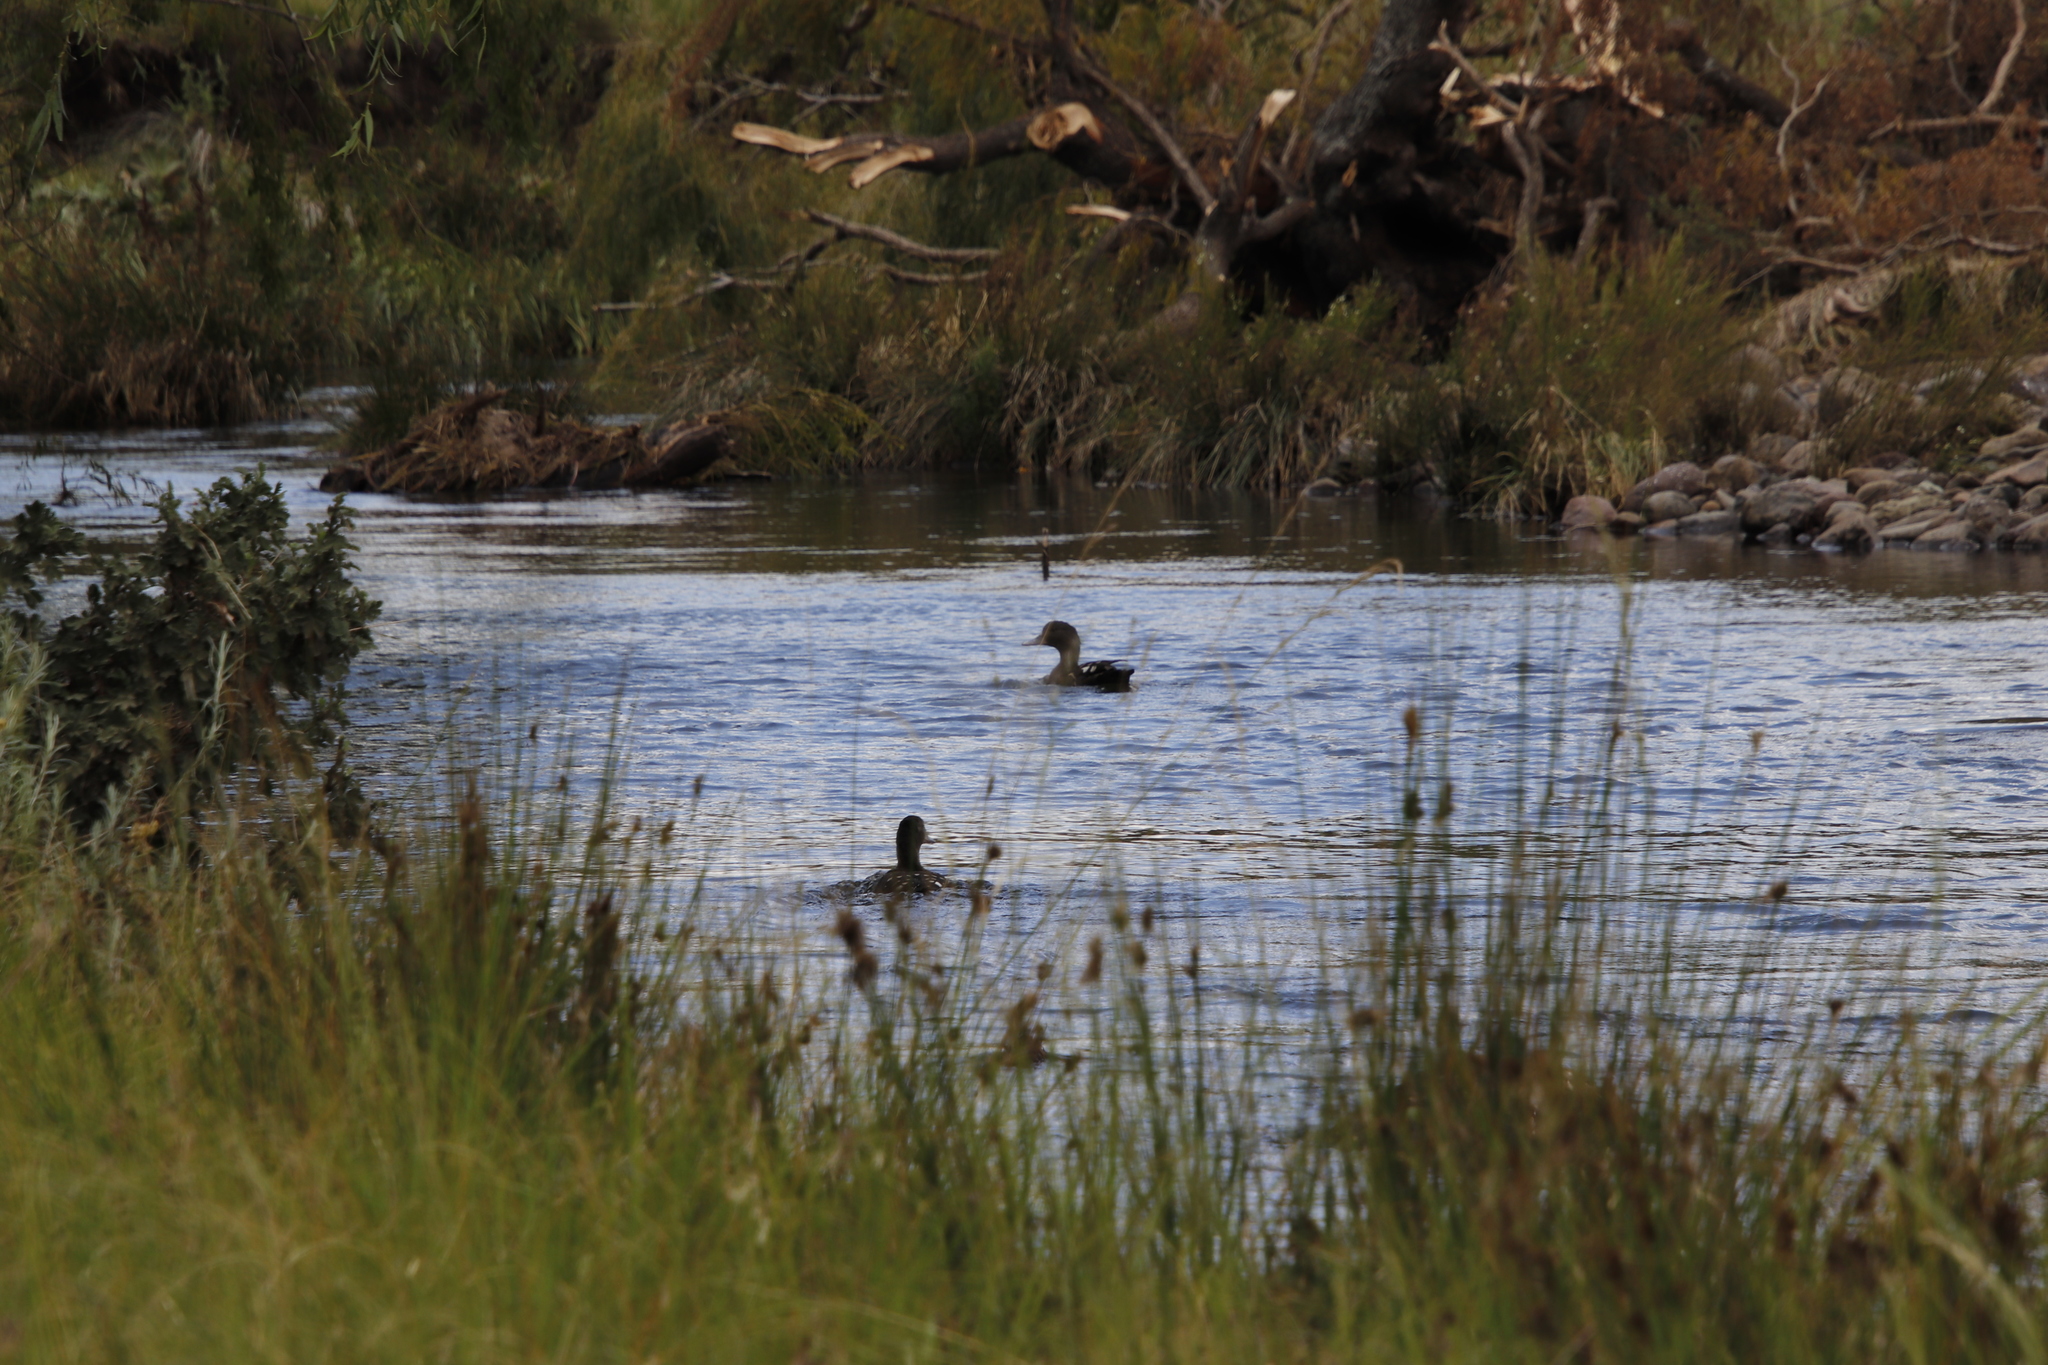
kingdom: Animalia
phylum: Chordata
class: Aves
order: Anseriformes
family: Anatidae
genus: Anas
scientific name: Anas sparsa
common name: African black duck
